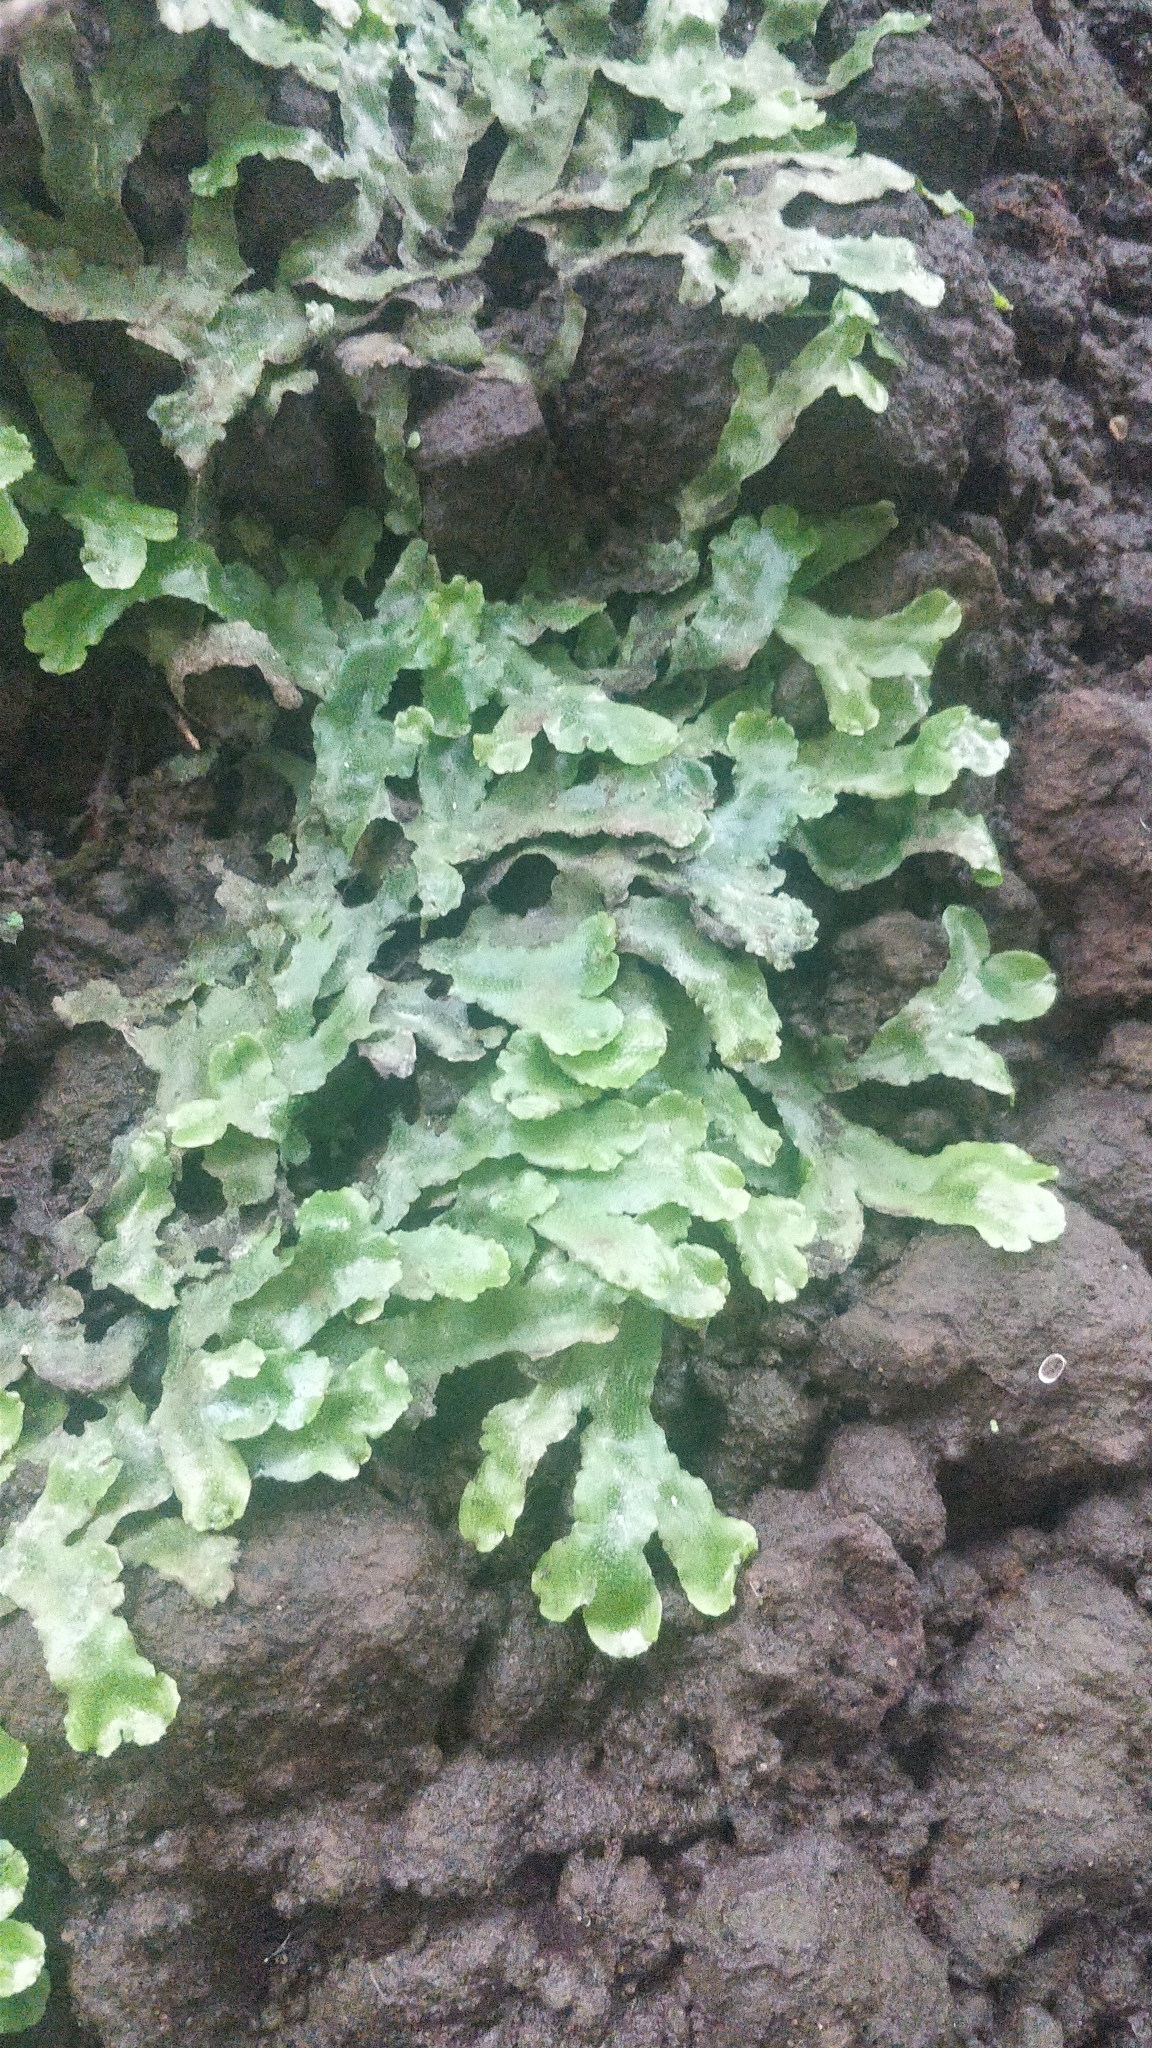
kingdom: Plantae
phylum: Marchantiophyta
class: Marchantiopsida
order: Marchantiales
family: Conocephalaceae
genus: Conocephalum
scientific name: Conocephalum conicum
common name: Great scented liverwort
